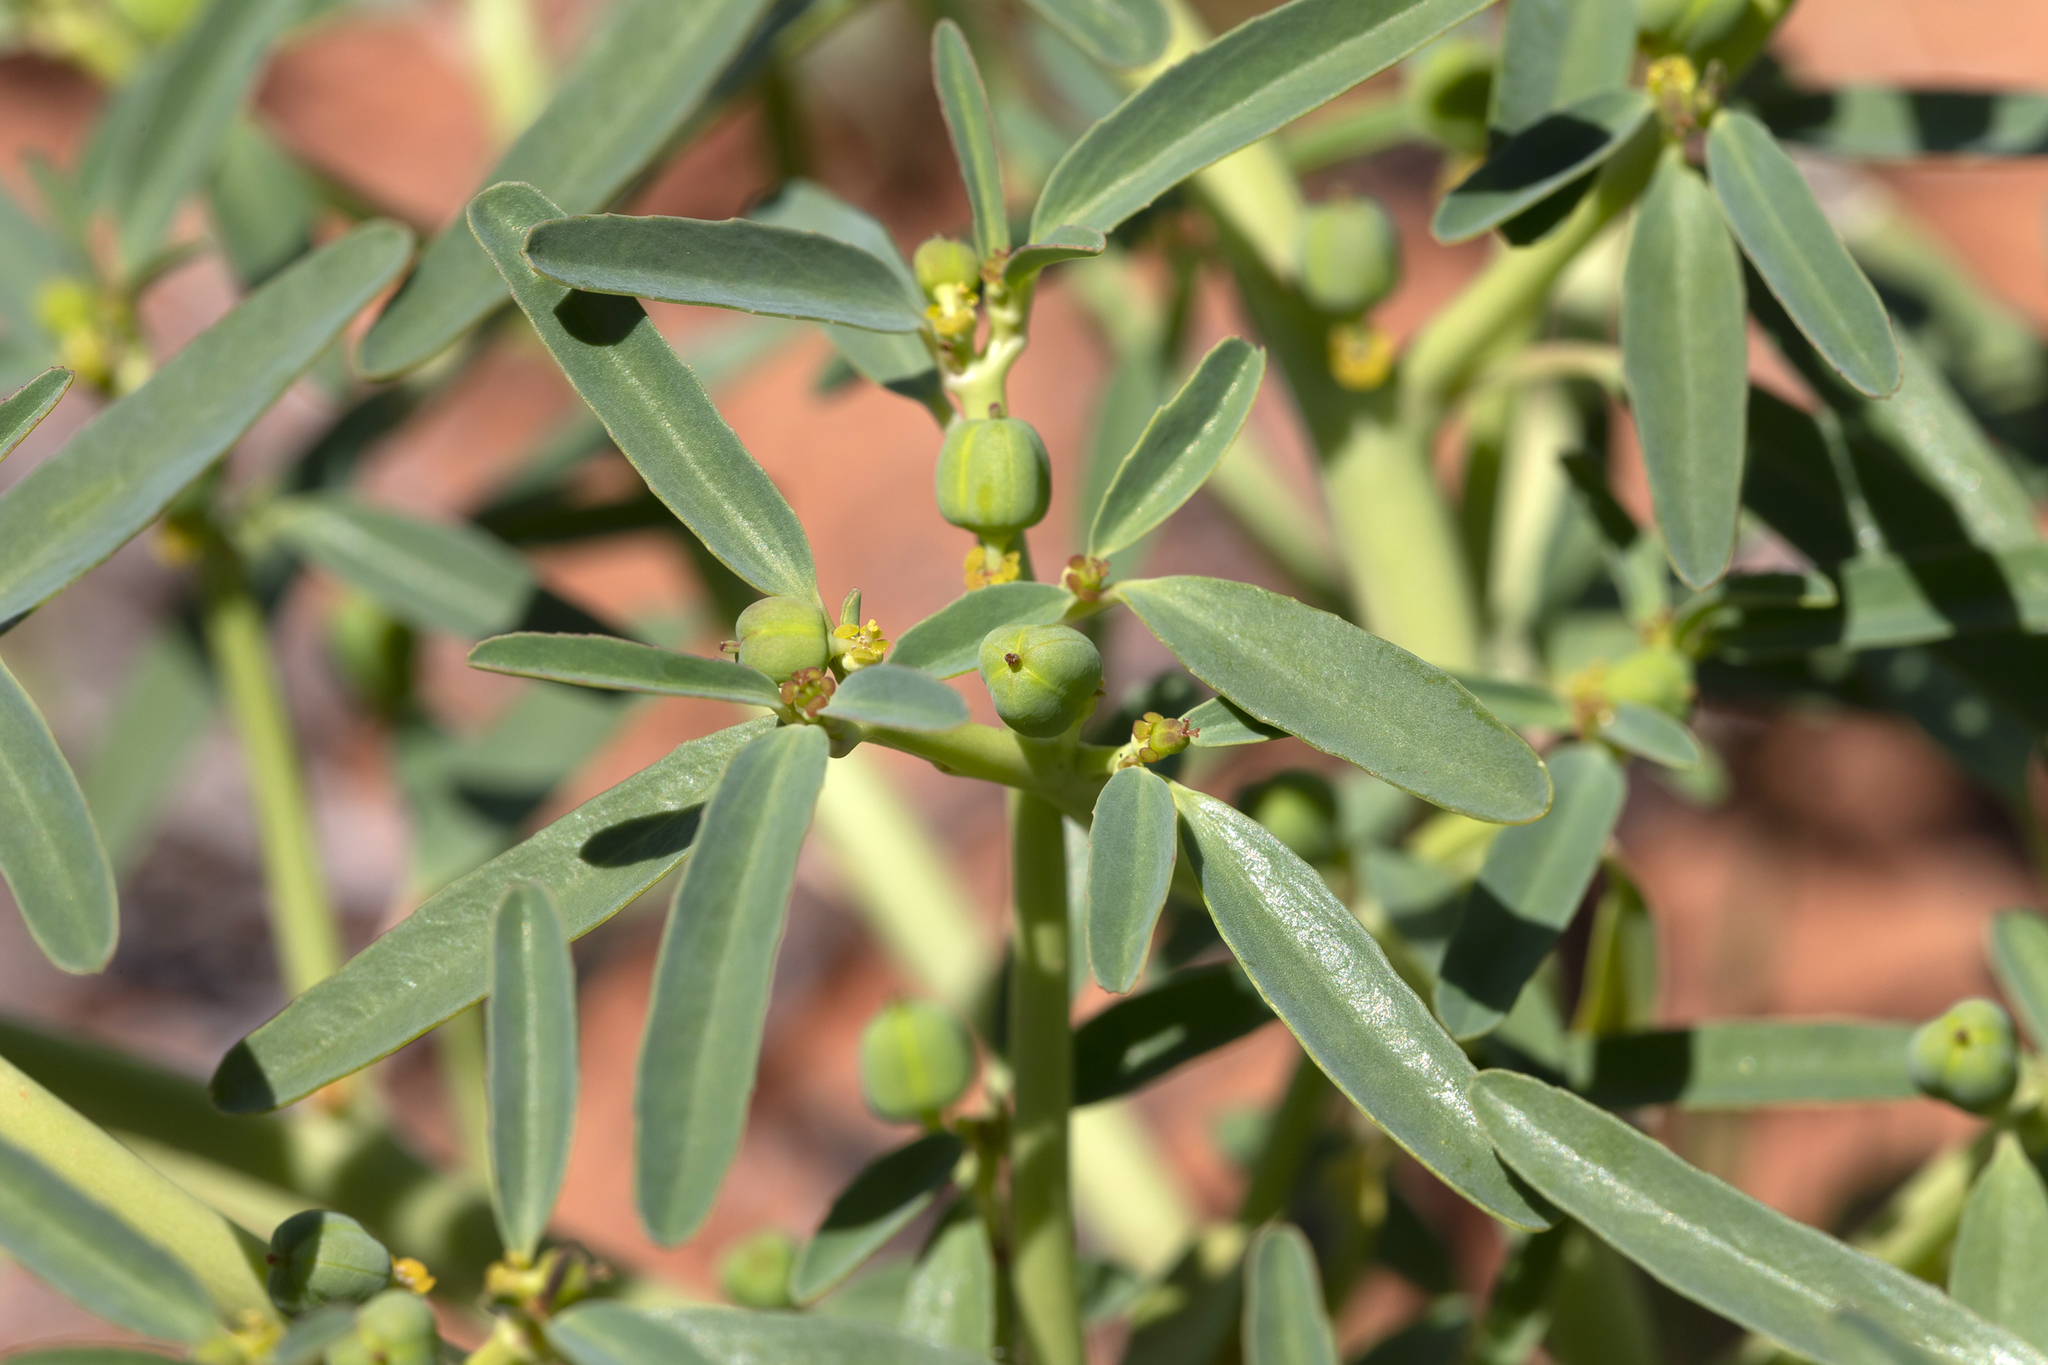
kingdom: Plantae
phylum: Tracheophyta
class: Magnoliopsida
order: Malpighiales
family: Euphorbiaceae
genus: Euphorbia
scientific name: Euphorbia tannensis
